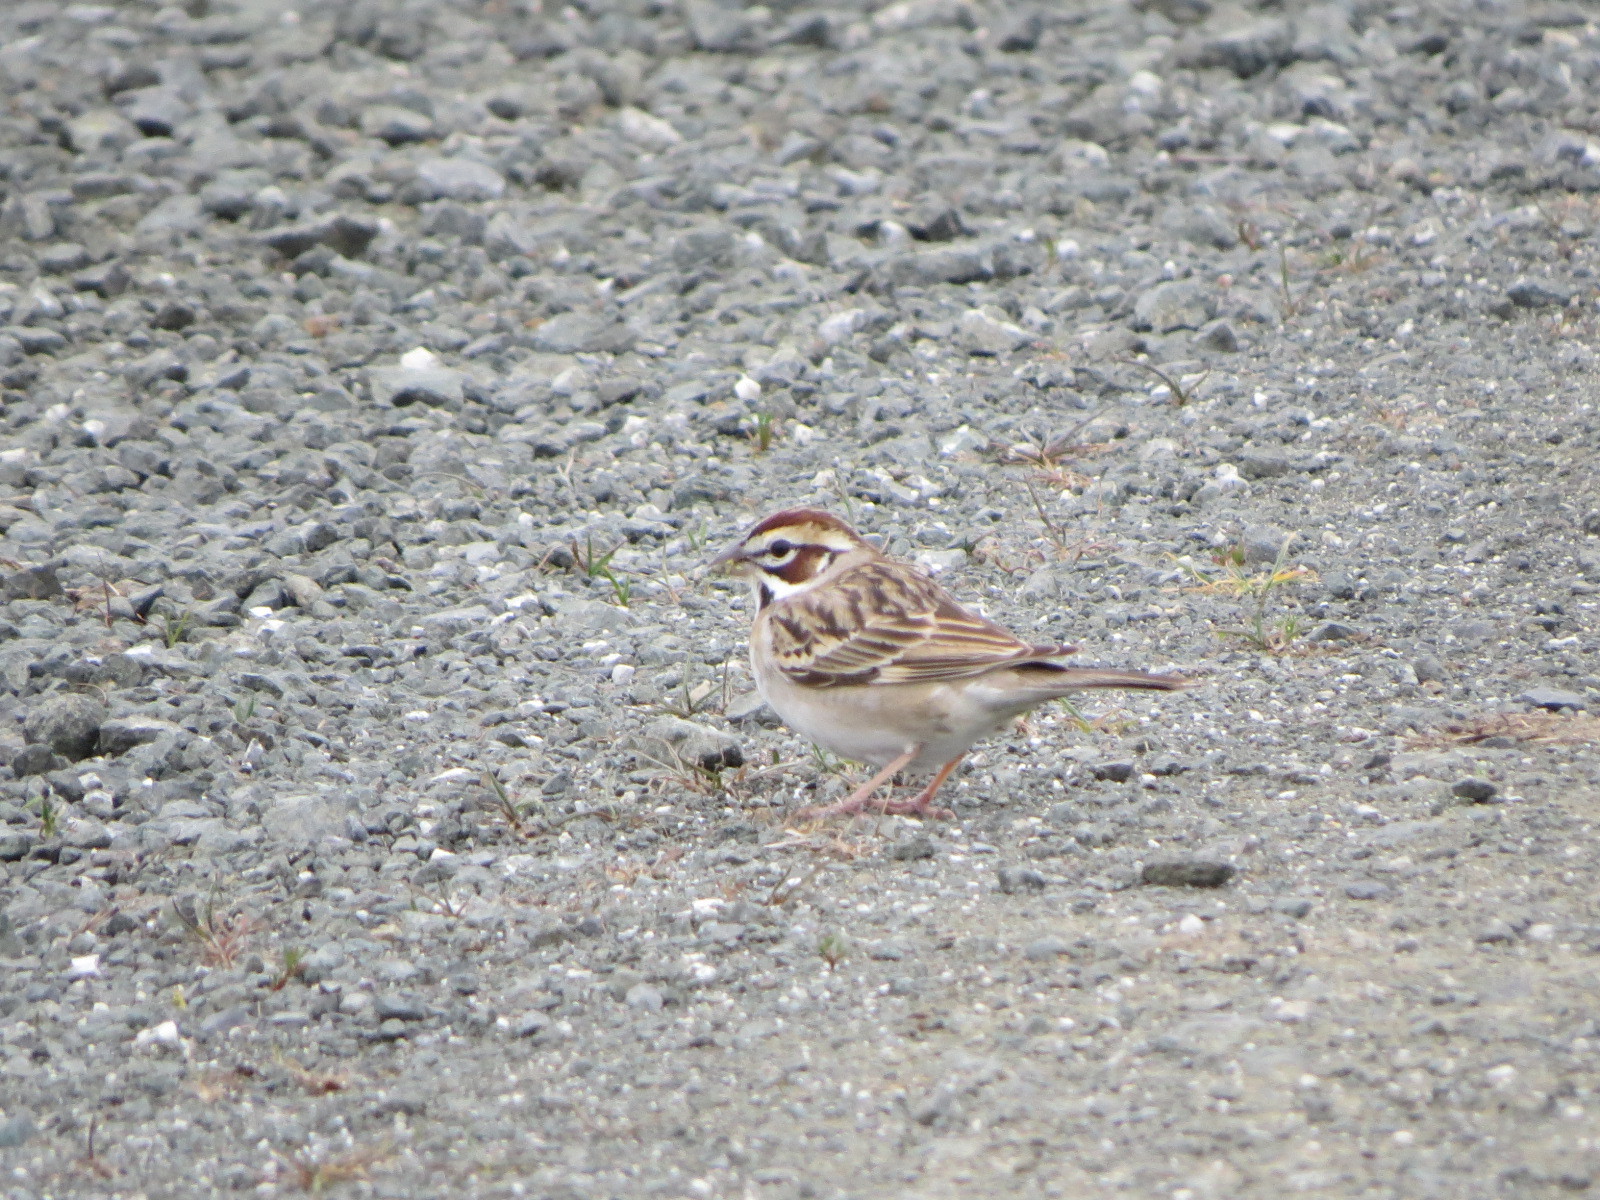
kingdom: Animalia
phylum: Chordata
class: Aves
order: Passeriformes
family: Passerellidae
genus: Chondestes
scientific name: Chondestes grammacus
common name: Lark sparrow
